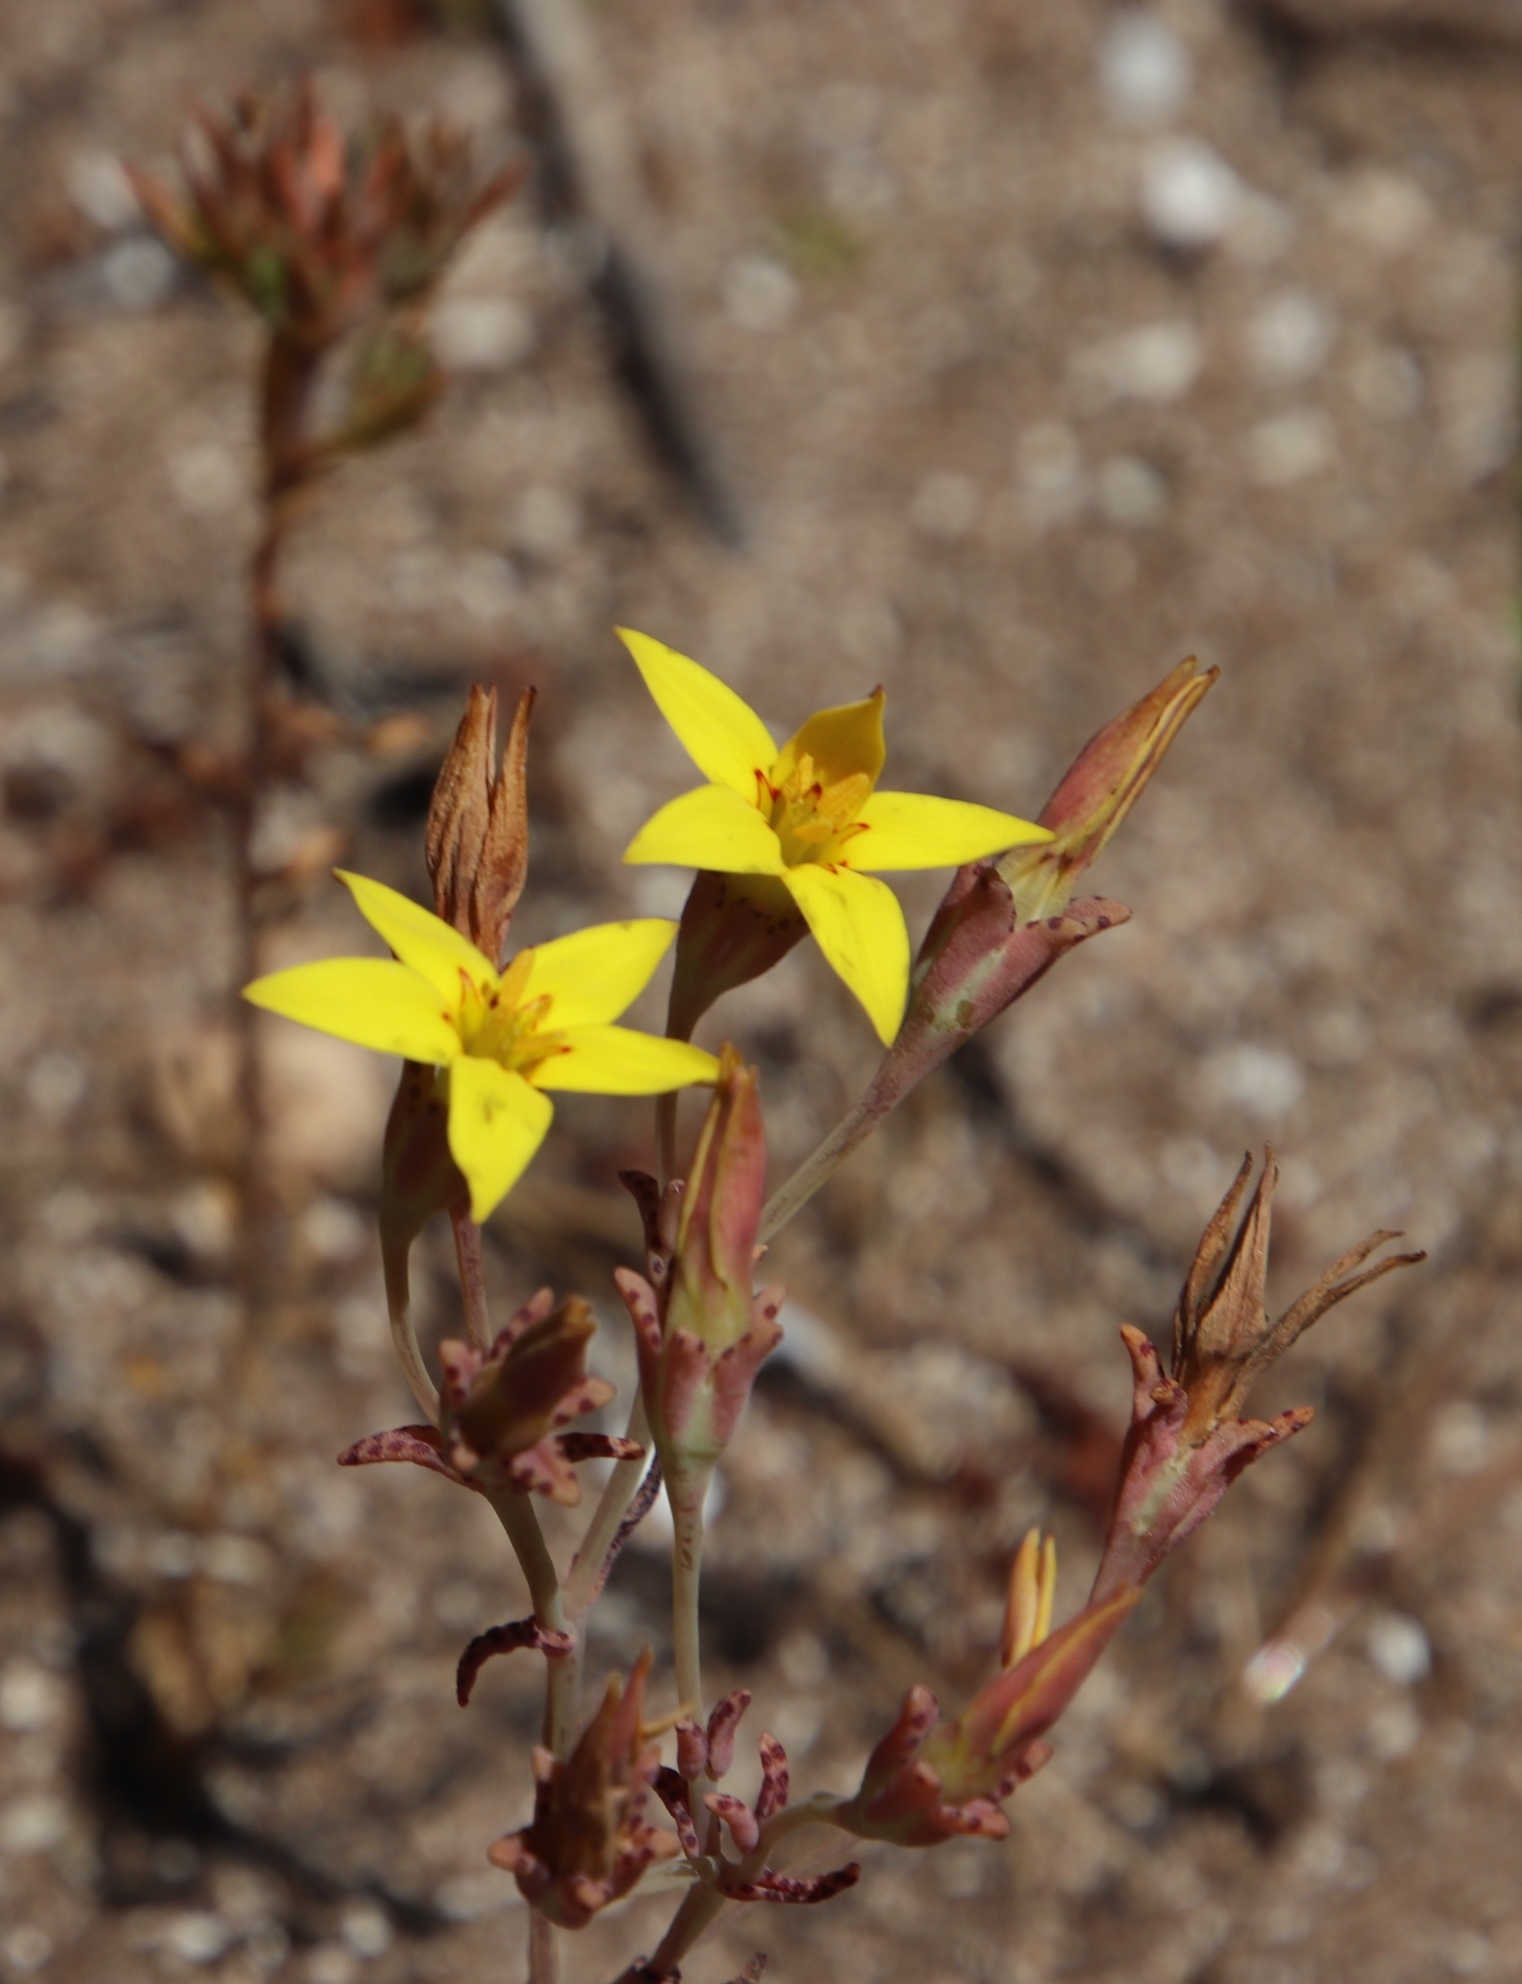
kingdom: Plantae
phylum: Tracheophyta
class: Magnoliopsida
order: Saxifragales
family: Crassulaceae
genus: Crassula
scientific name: Crassula dichotoma
